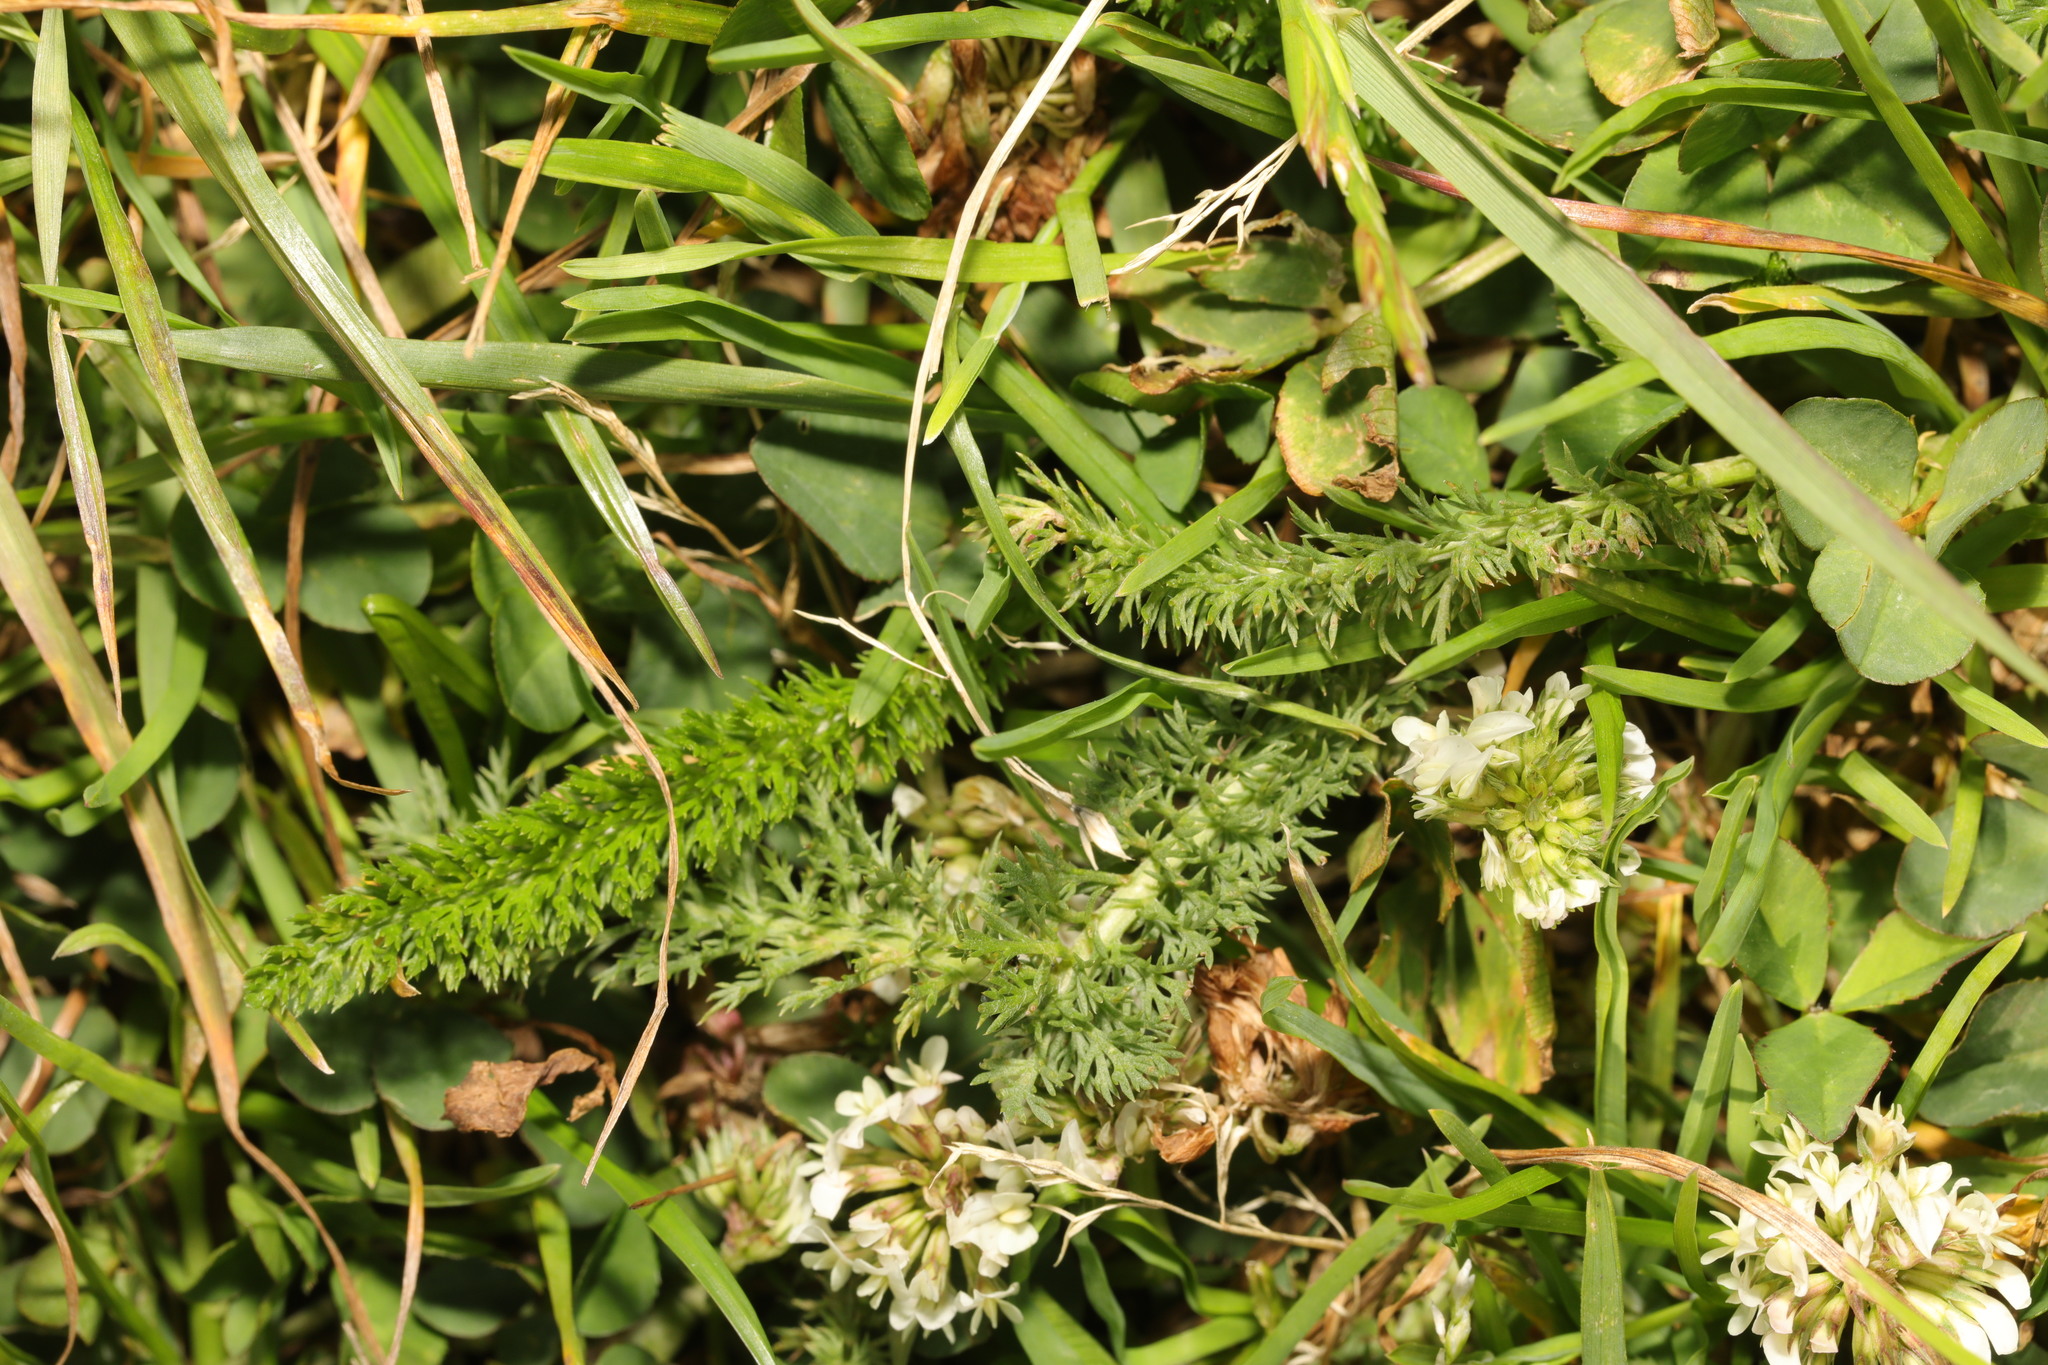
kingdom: Plantae
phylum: Tracheophyta
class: Magnoliopsida
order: Asterales
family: Asteraceae
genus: Achillea
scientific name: Achillea millefolium
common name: Yarrow
